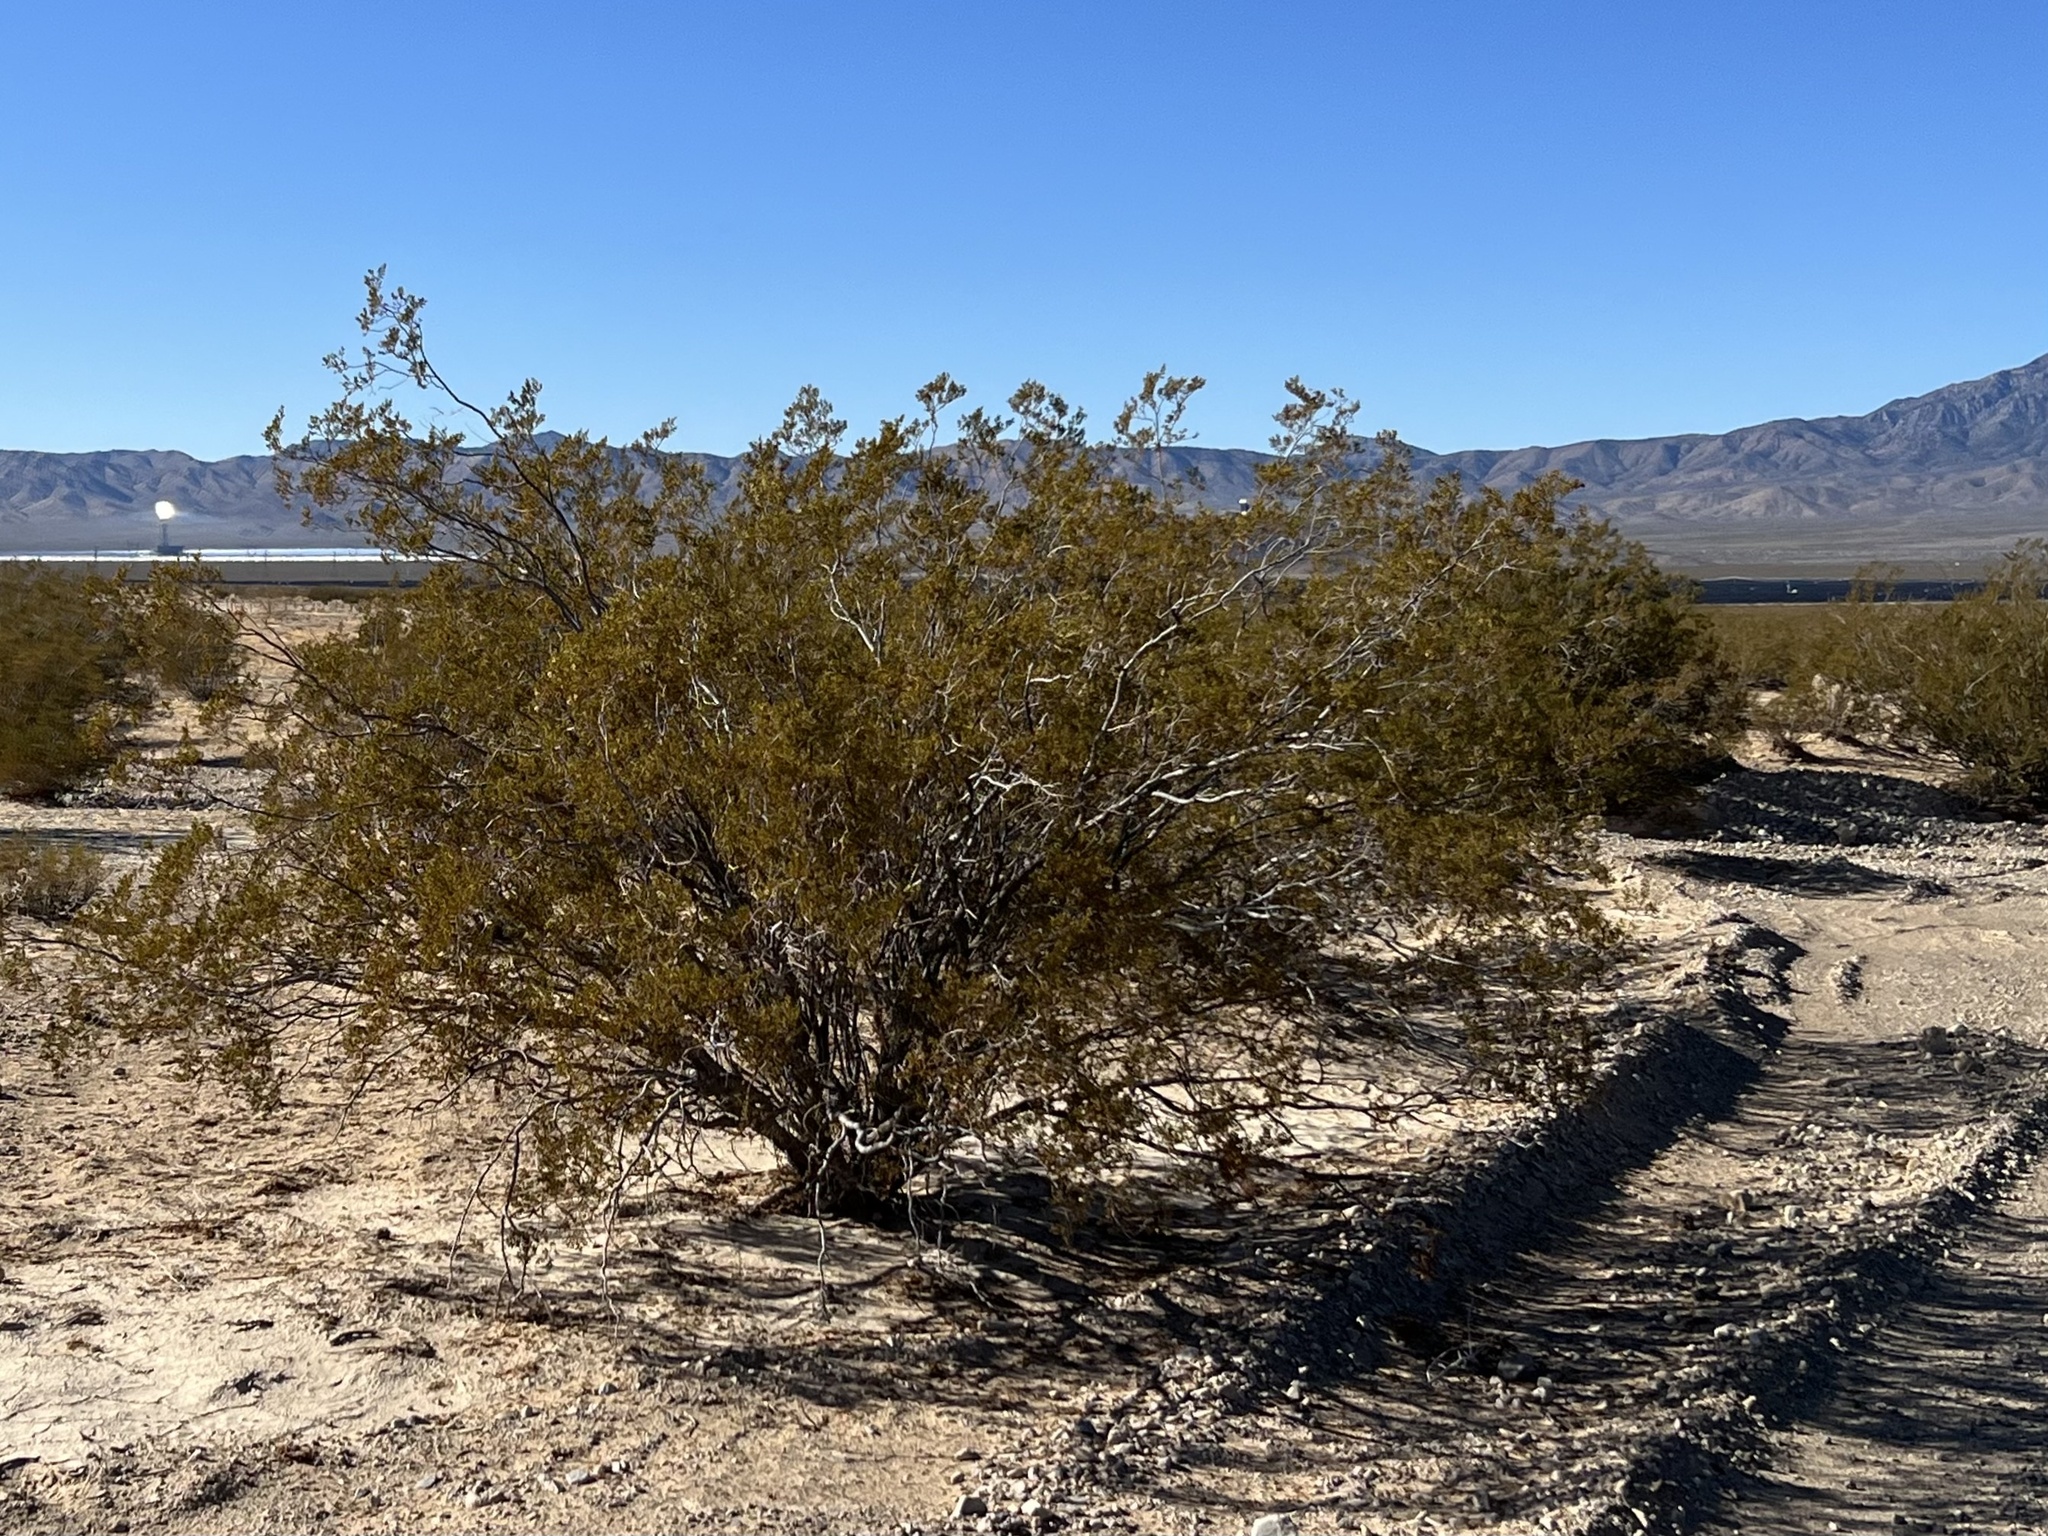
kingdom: Plantae
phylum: Tracheophyta
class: Magnoliopsida
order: Zygophyllales
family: Zygophyllaceae
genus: Larrea
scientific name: Larrea tridentata
